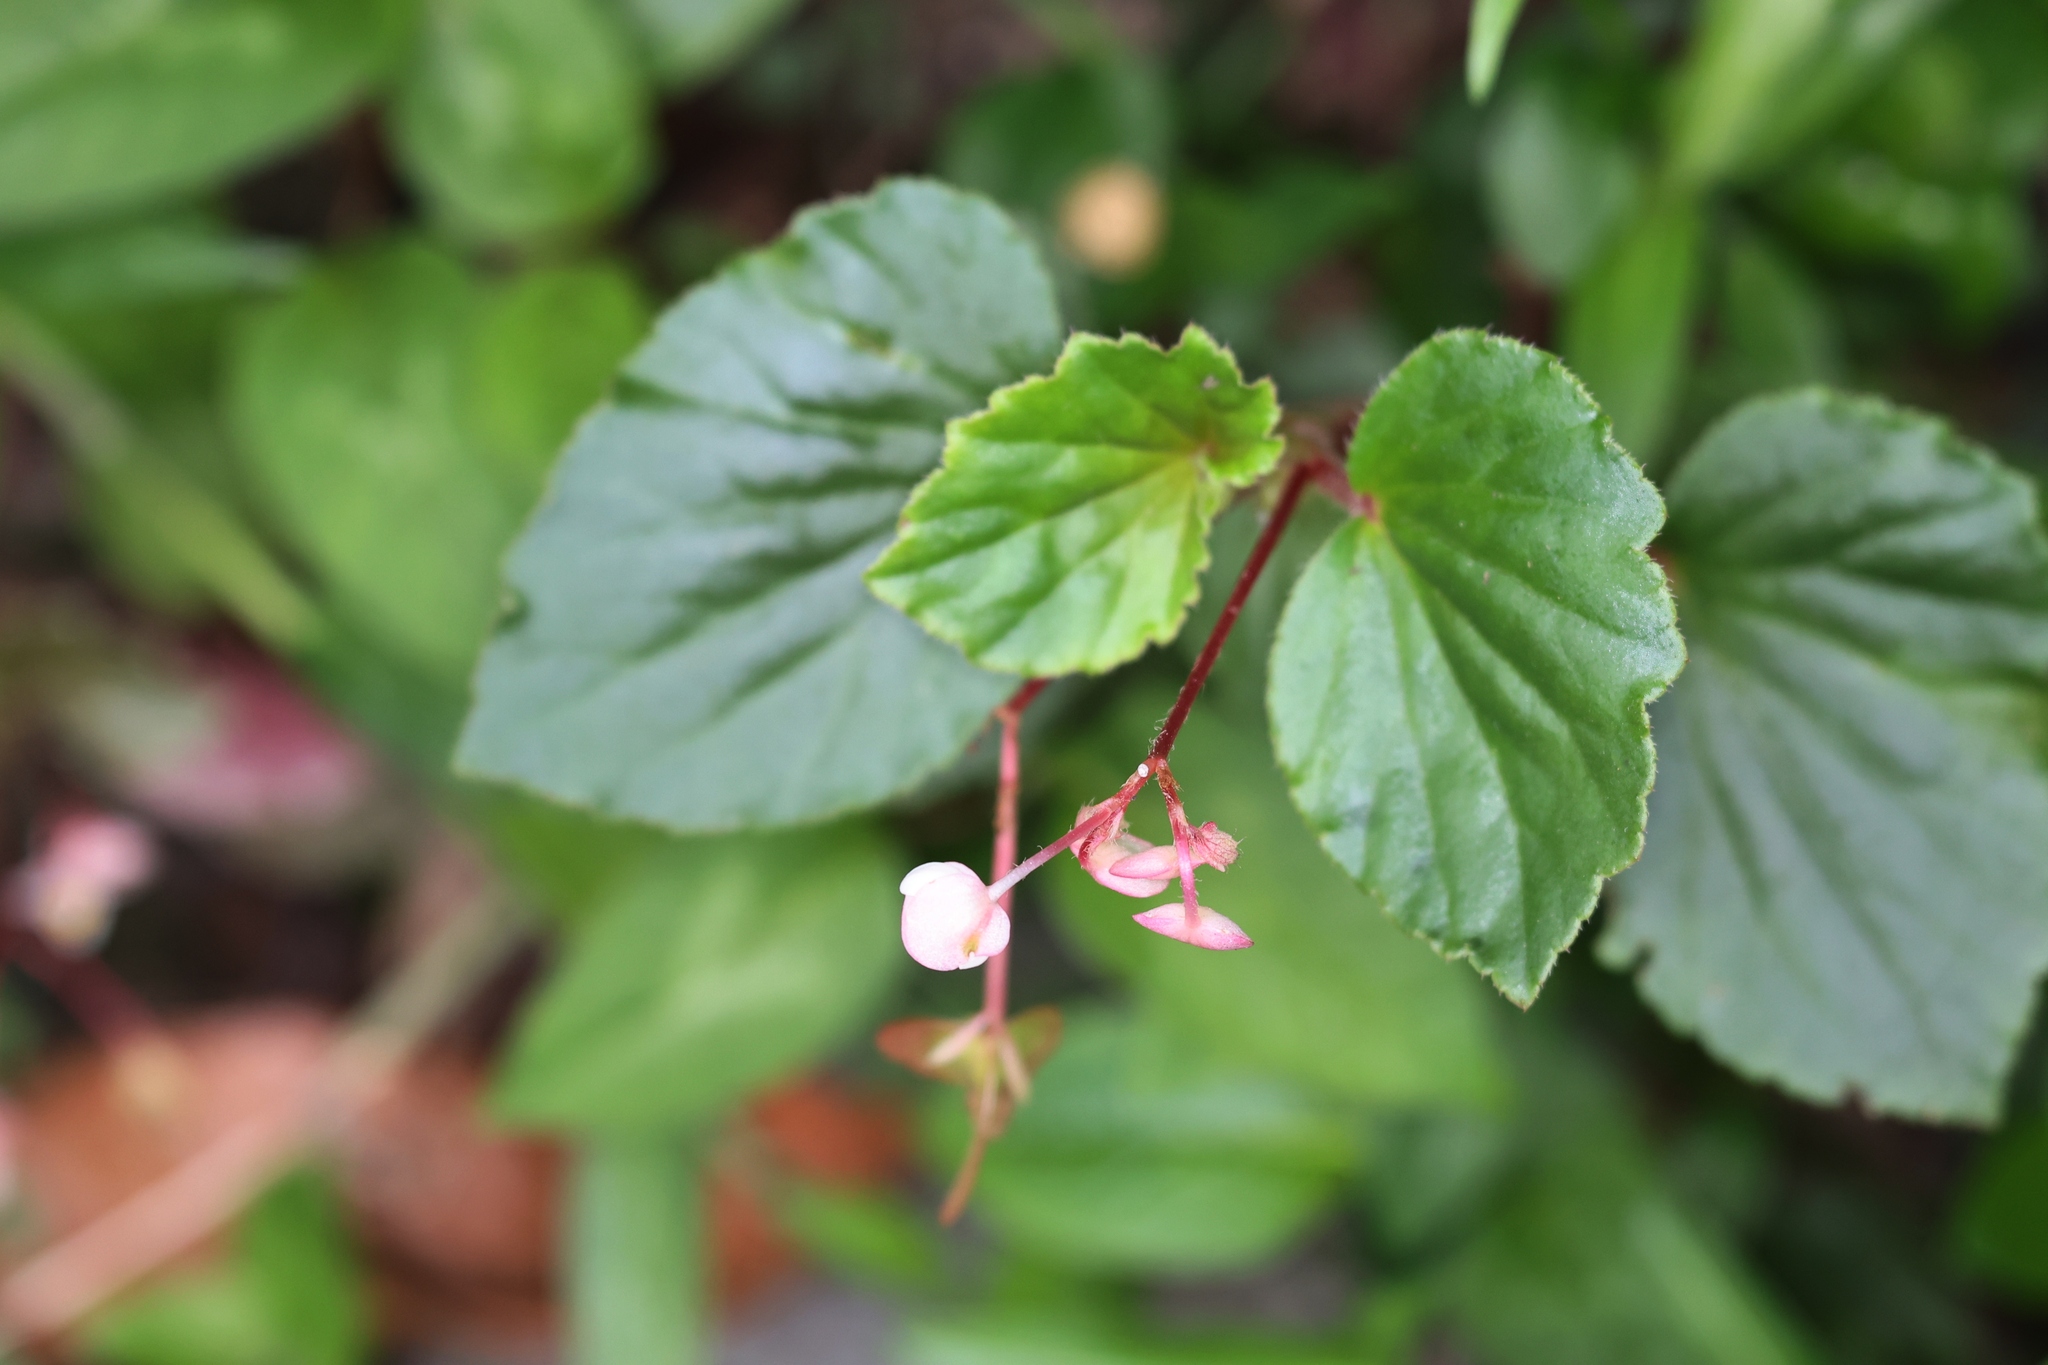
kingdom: Plantae
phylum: Tracheophyta
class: Magnoliopsida
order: Cucurbitales
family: Begoniaceae
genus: Begonia
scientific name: Begonia cucullata
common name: Clubbed begonia
